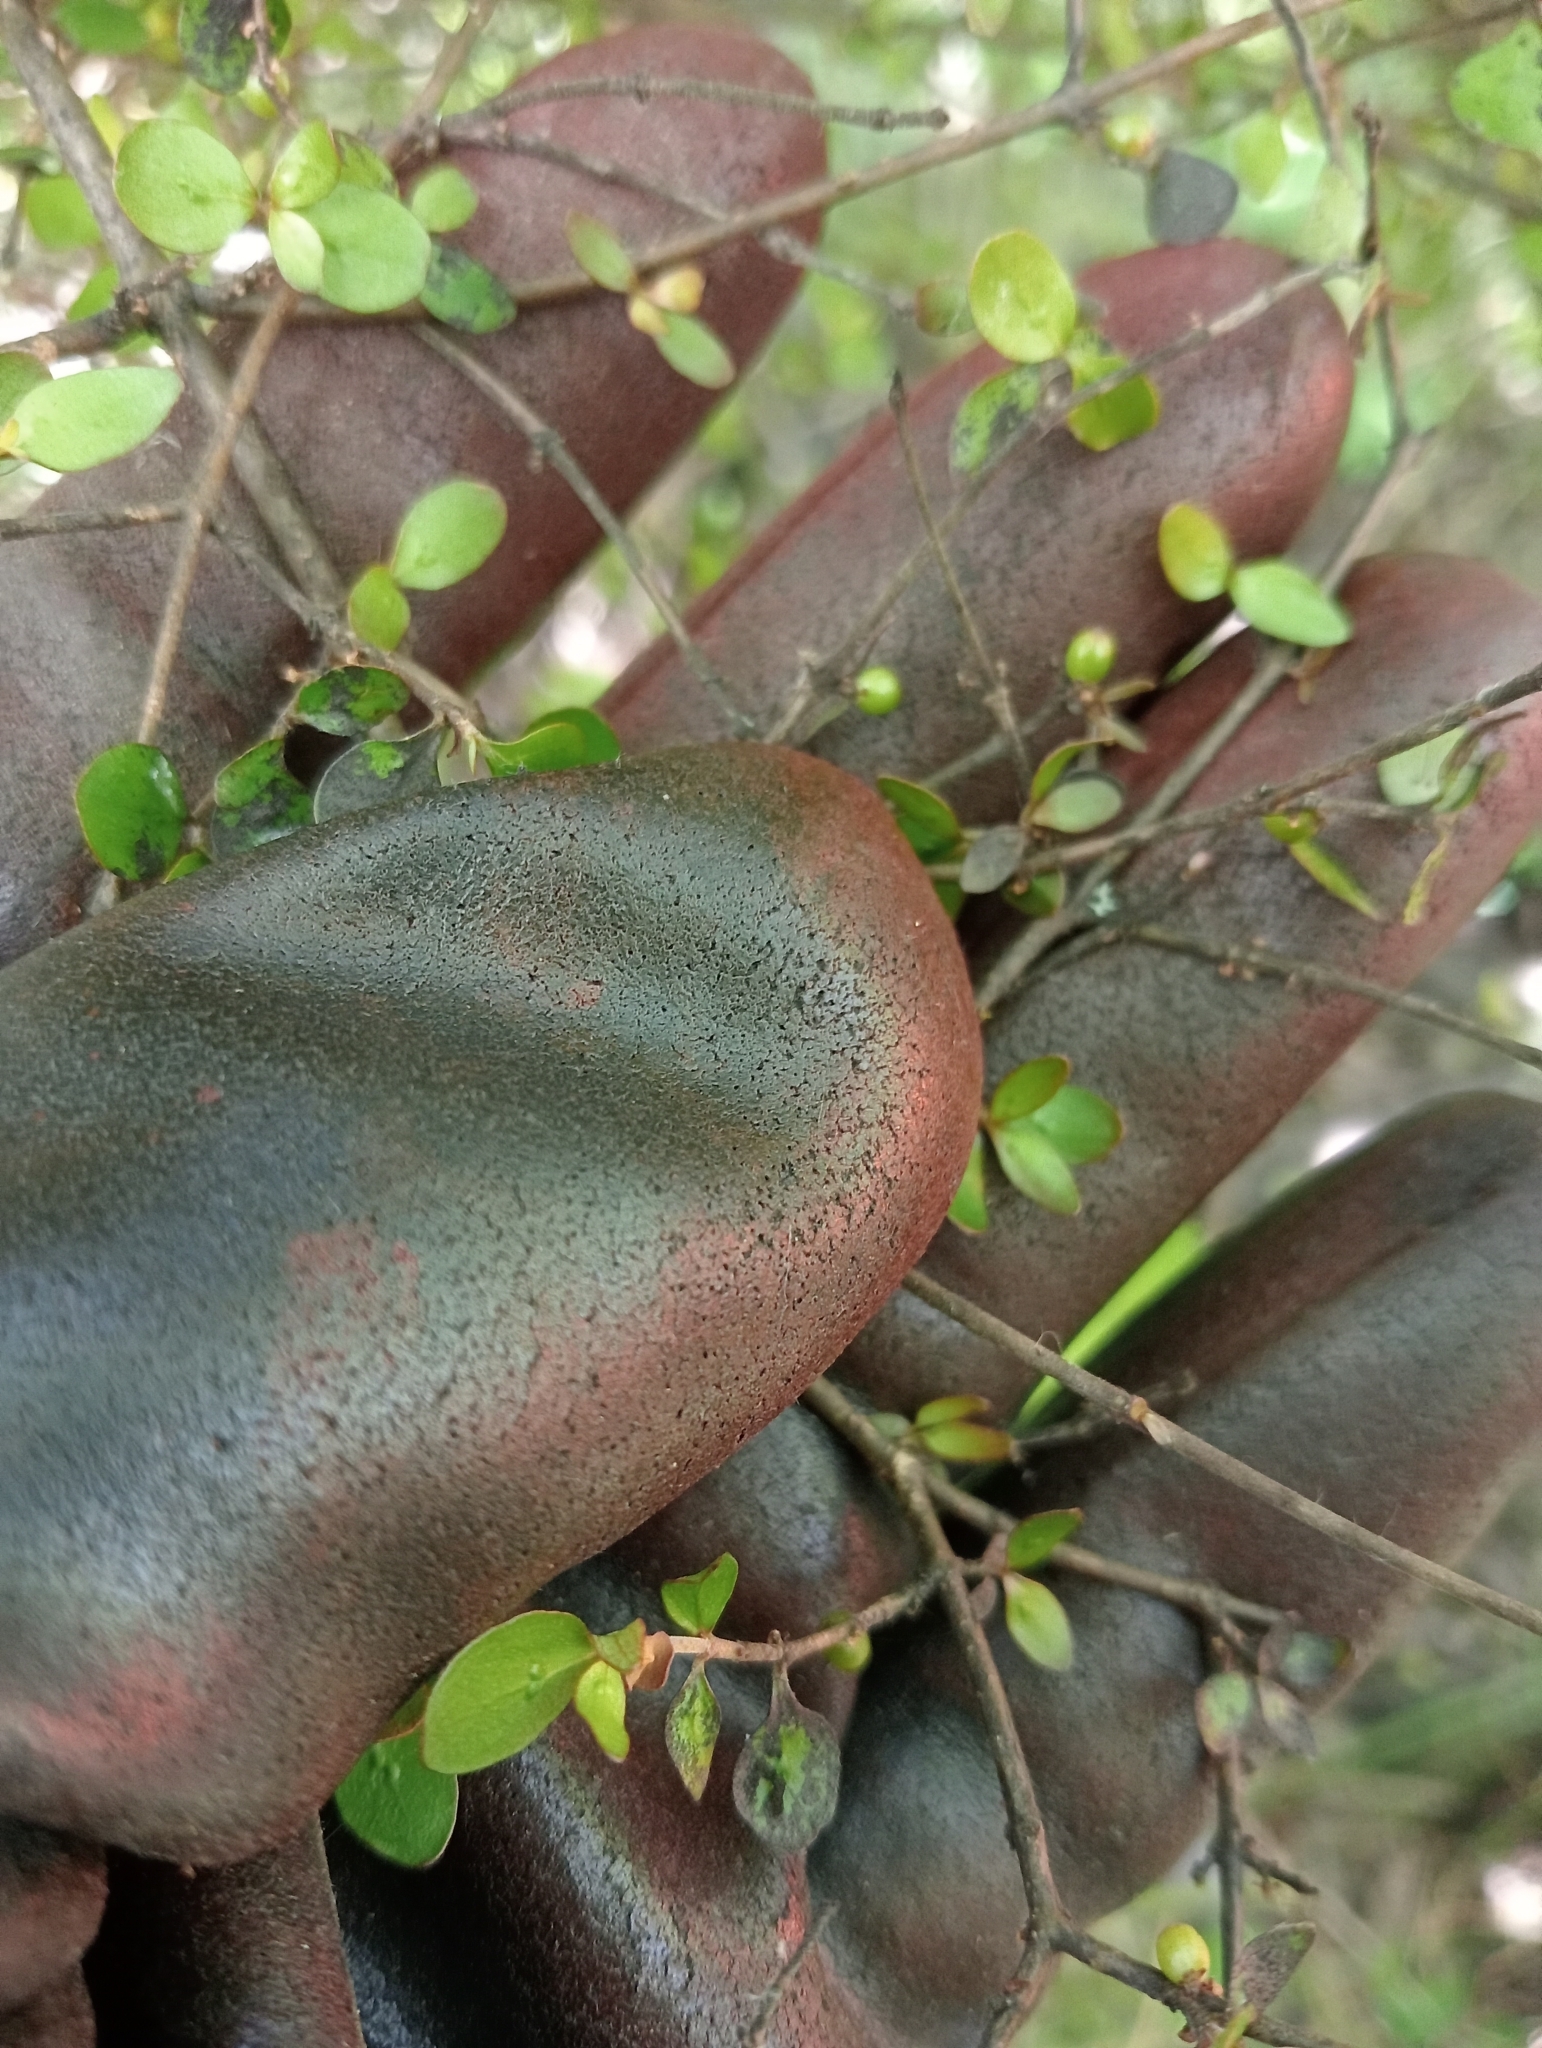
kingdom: Plantae
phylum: Tracheophyta
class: Magnoliopsida
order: Gentianales
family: Rubiaceae
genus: Coprosma
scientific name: Coprosma rhamnoides
